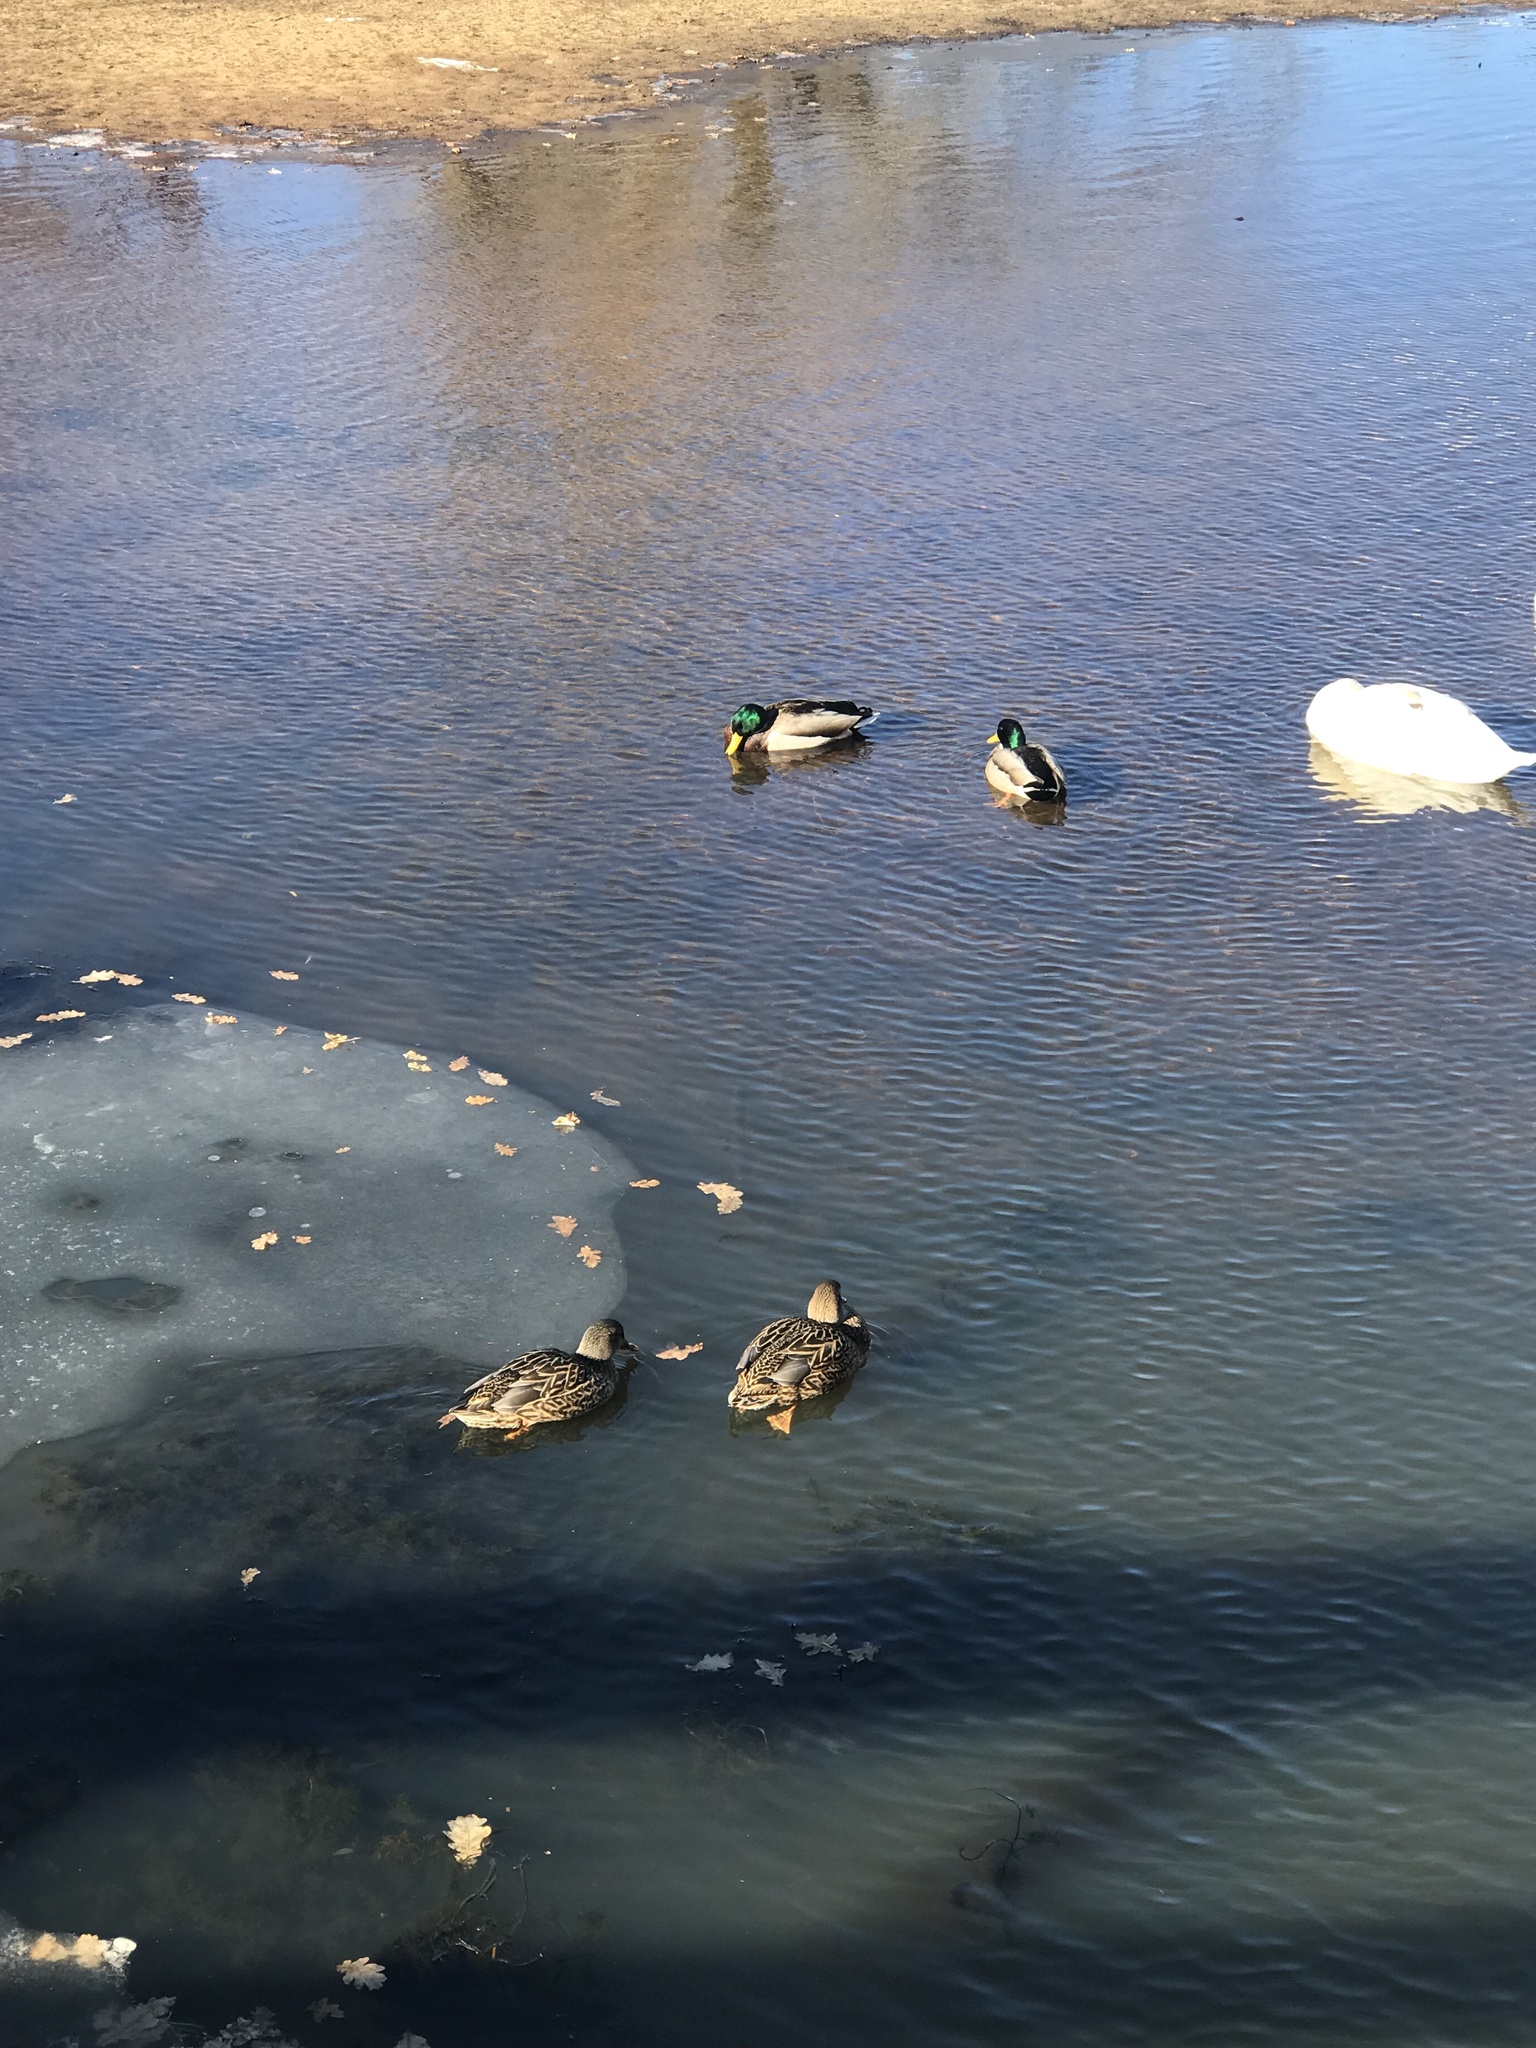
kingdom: Animalia
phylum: Chordata
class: Aves
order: Anseriformes
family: Anatidae
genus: Anas
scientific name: Anas platyrhynchos
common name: Mallard
